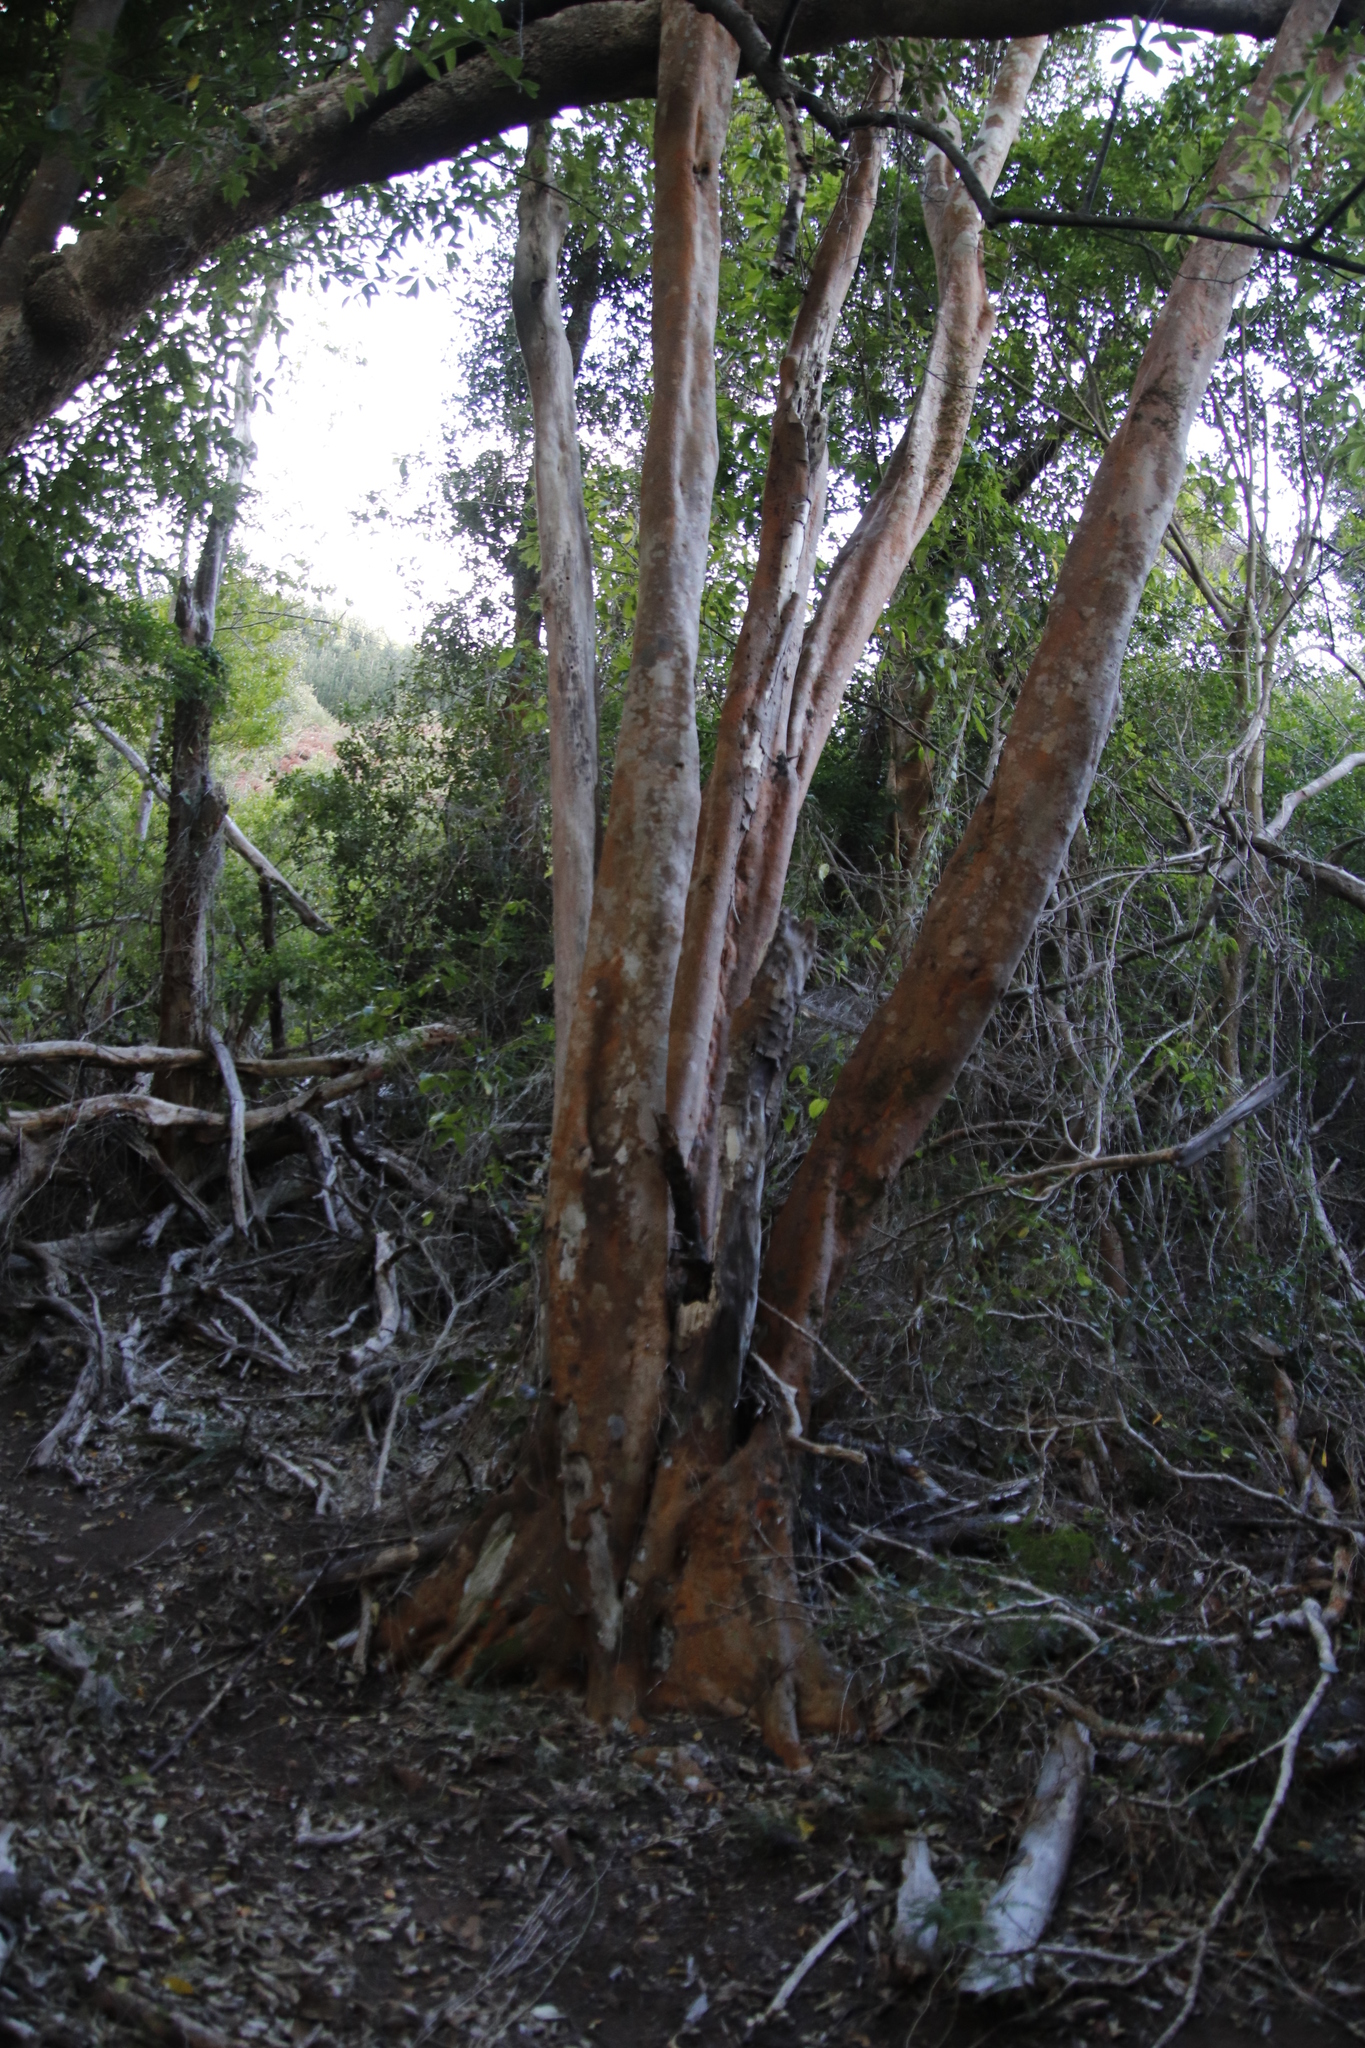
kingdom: Plantae
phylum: Tracheophyta
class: Magnoliopsida
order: Celastrales
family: Celastraceae
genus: Cassine
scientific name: Cassine peragua
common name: Cape saffron
